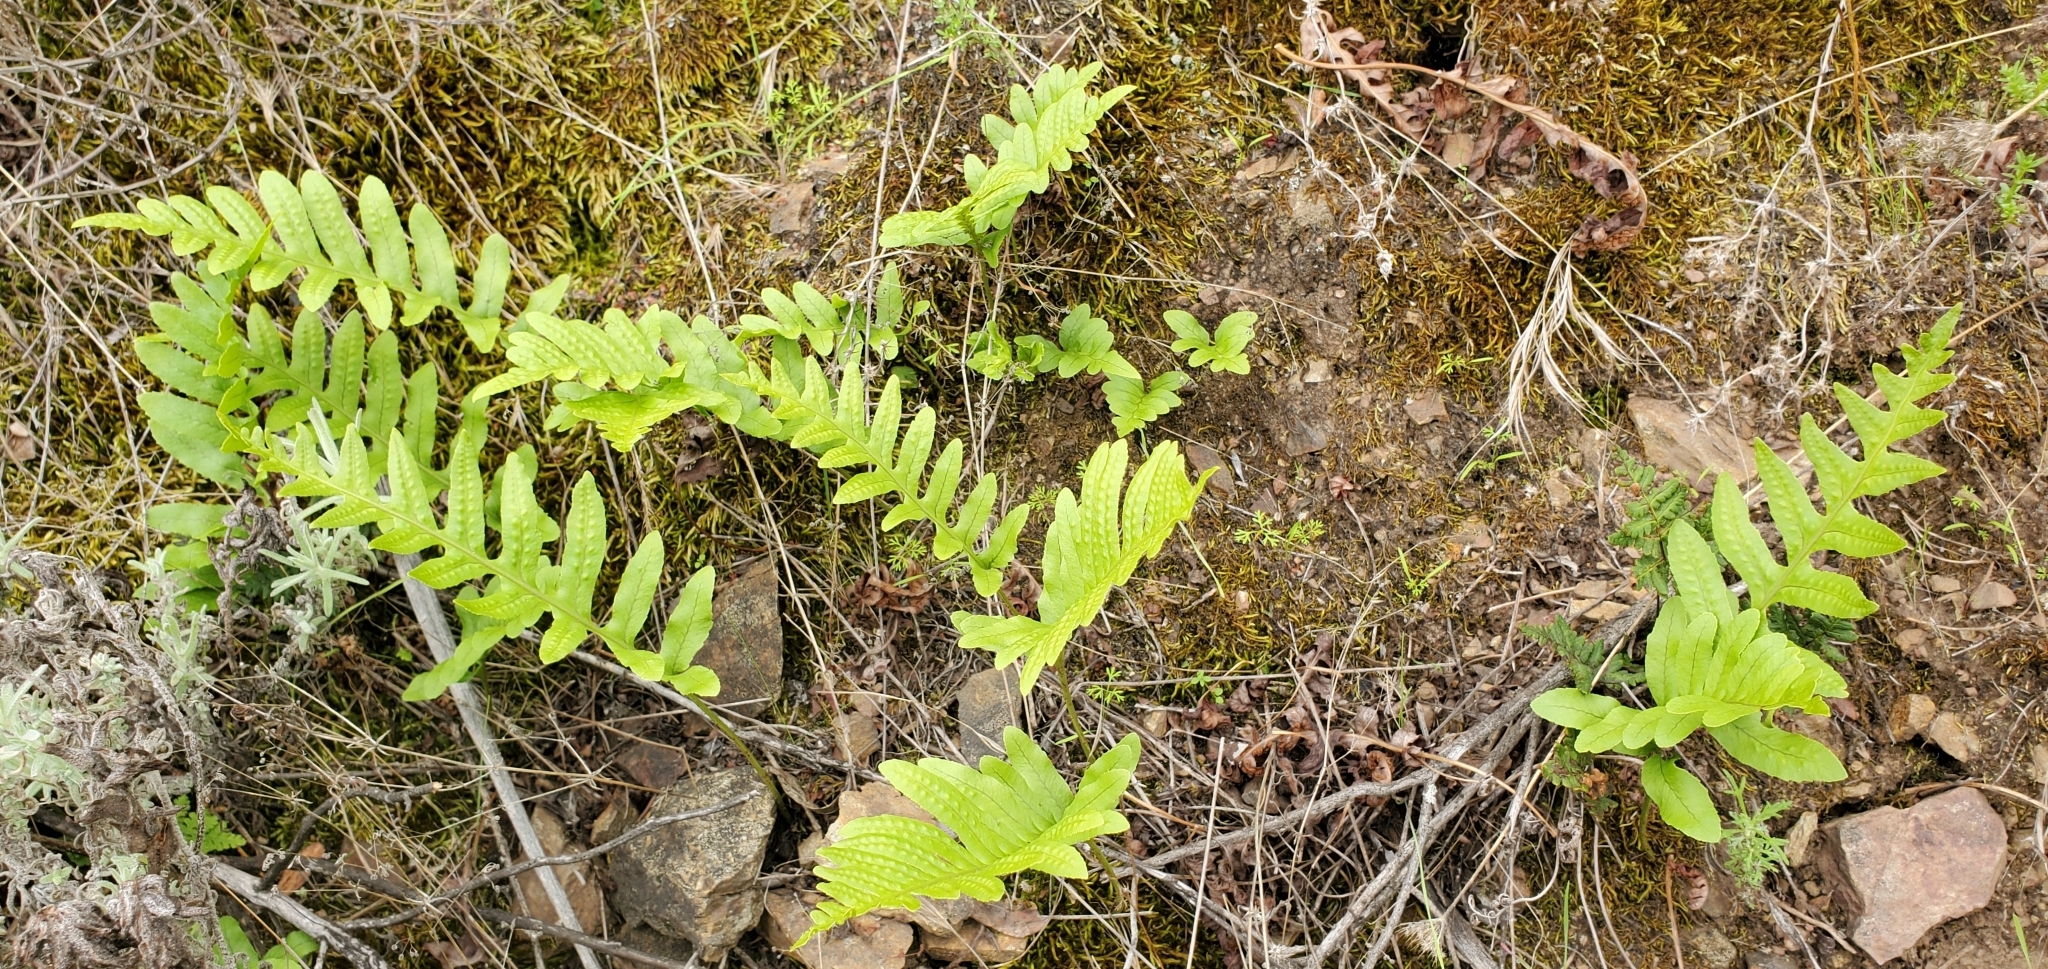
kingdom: Plantae
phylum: Tracheophyta
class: Polypodiopsida
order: Polypodiales
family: Polypodiaceae
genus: Polypodium
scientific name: Polypodium californicum
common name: California polypody
